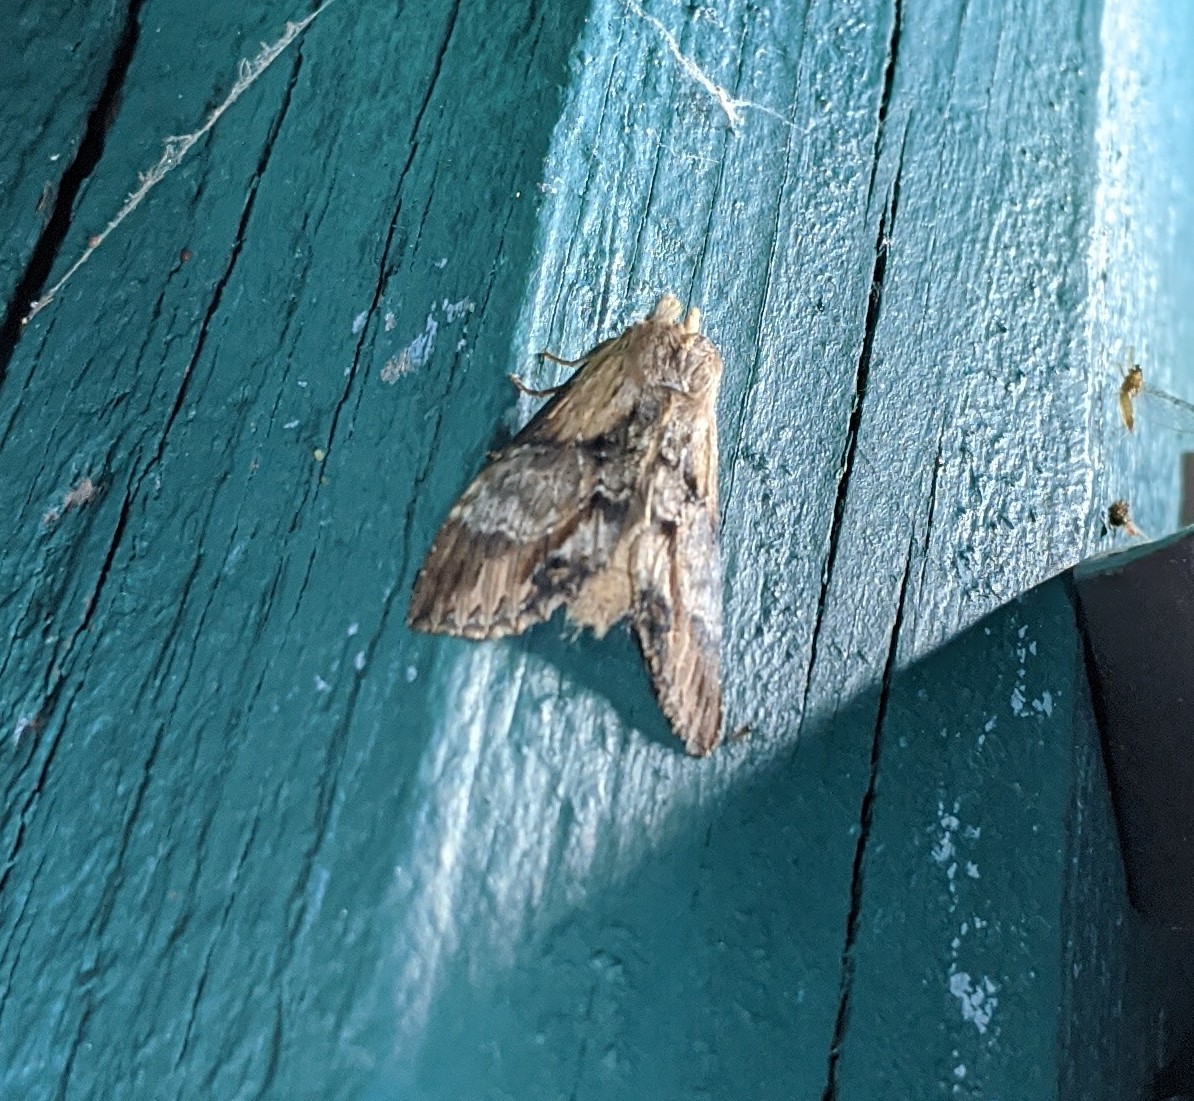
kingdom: Animalia
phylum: Arthropoda
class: Insecta
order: Lepidoptera
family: Notodontidae
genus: Dasylophia
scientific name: Dasylophia thyatiroides
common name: Gray-patched prominent
